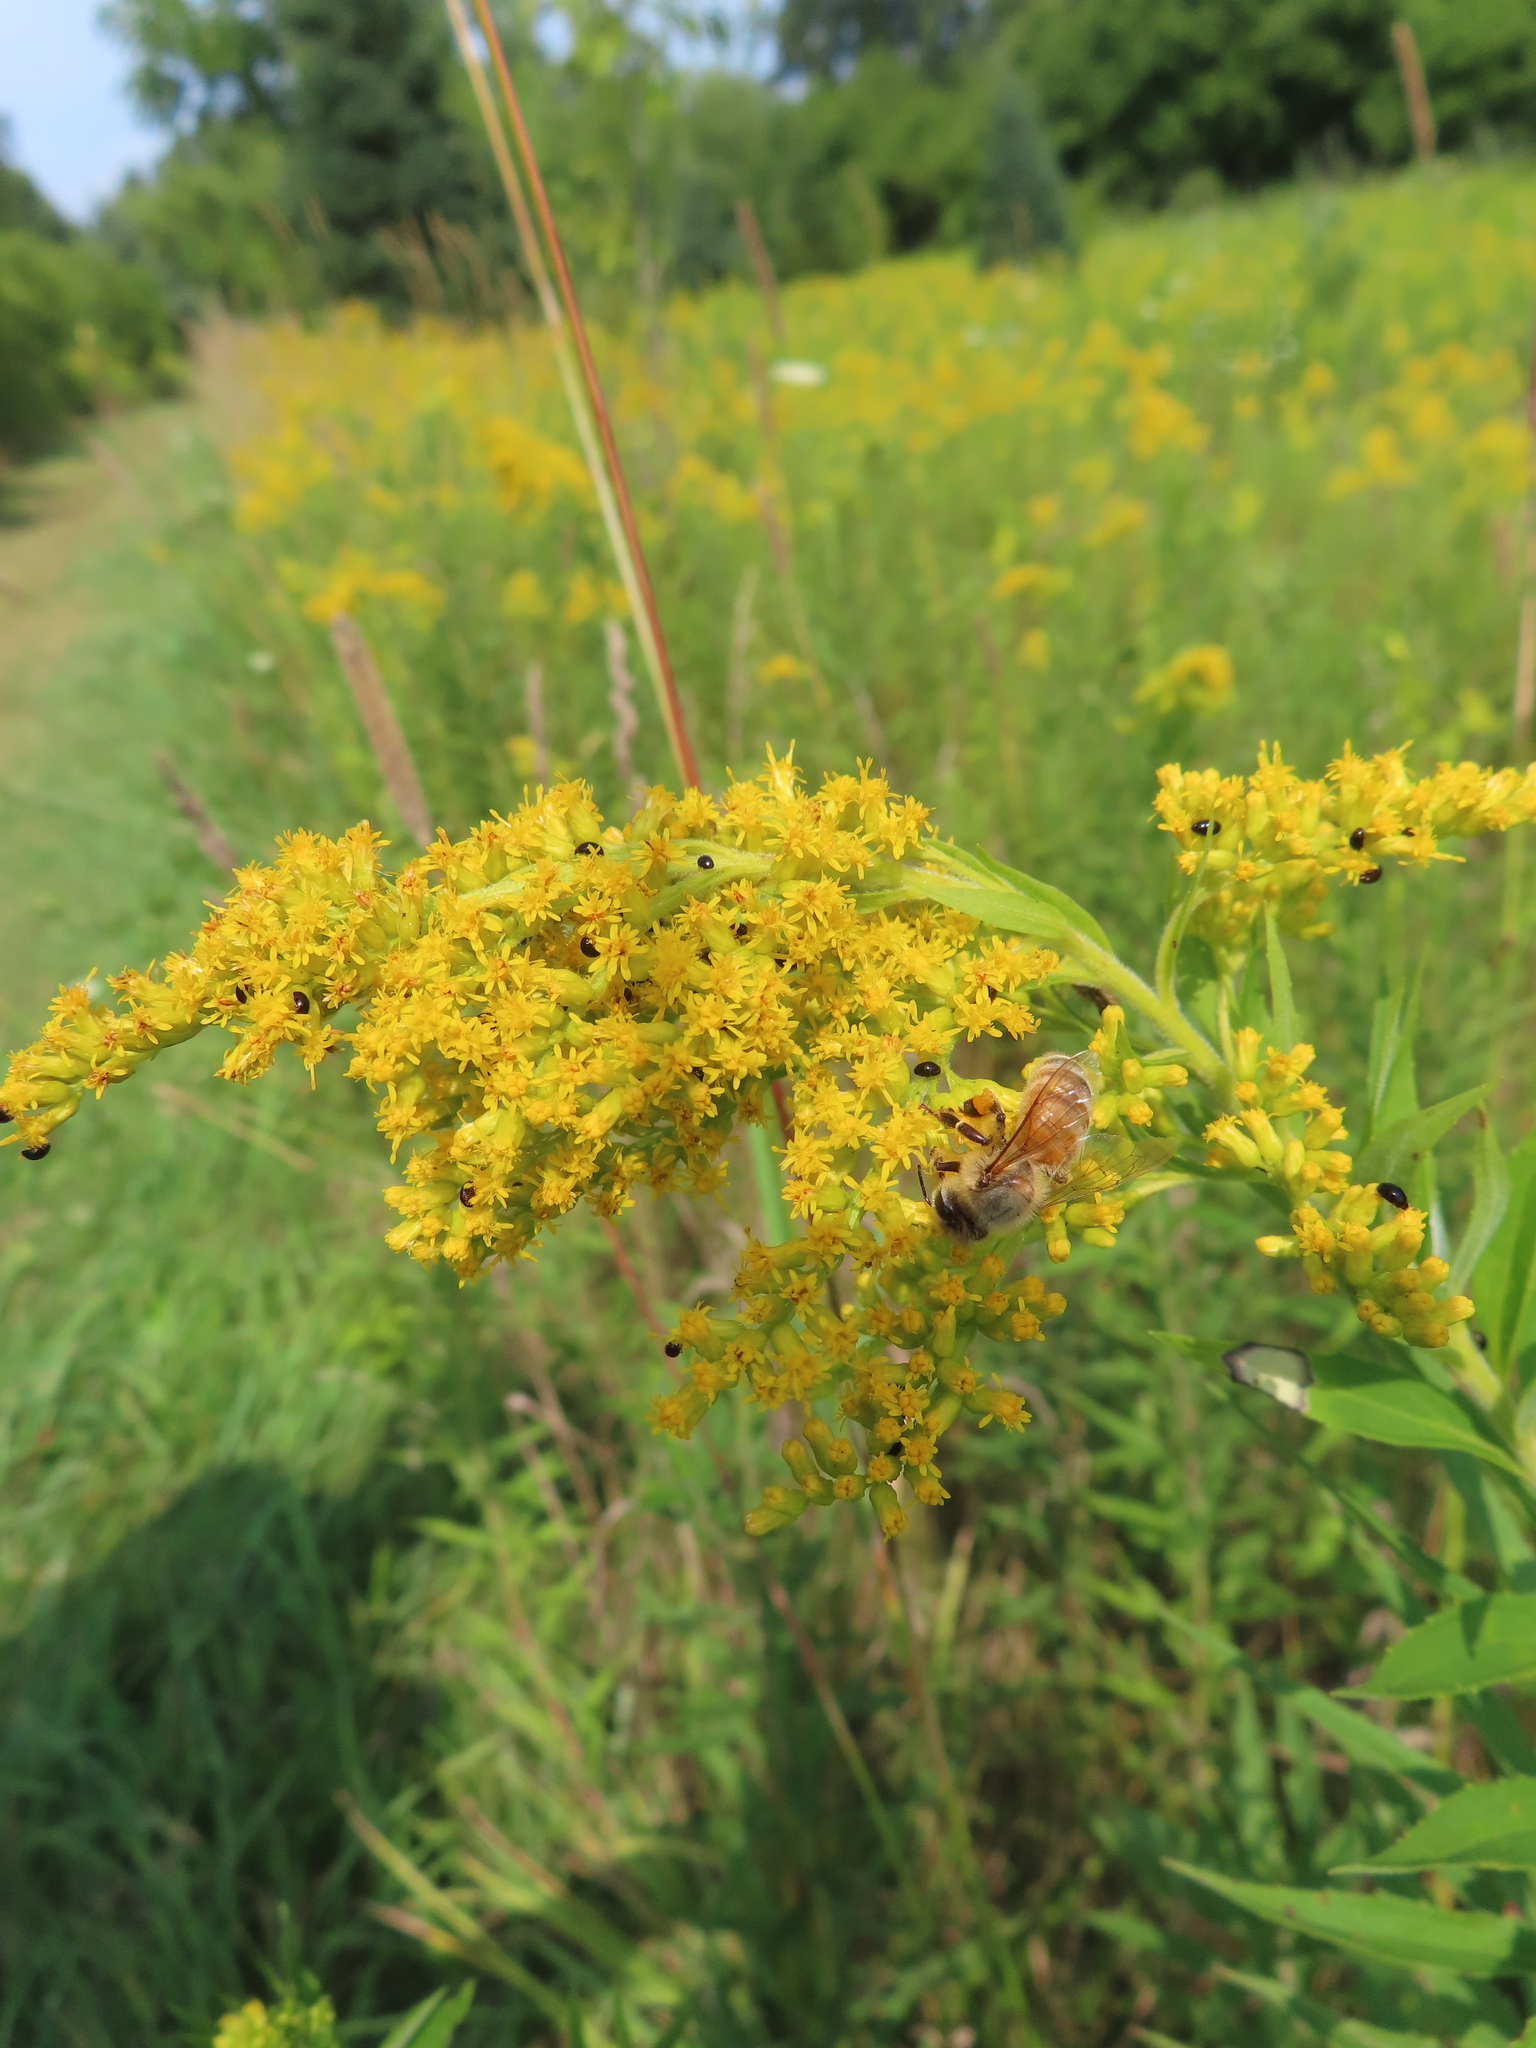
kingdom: Animalia
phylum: Arthropoda
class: Insecta
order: Hymenoptera
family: Apidae
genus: Apis
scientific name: Apis mellifera
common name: Honey bee
